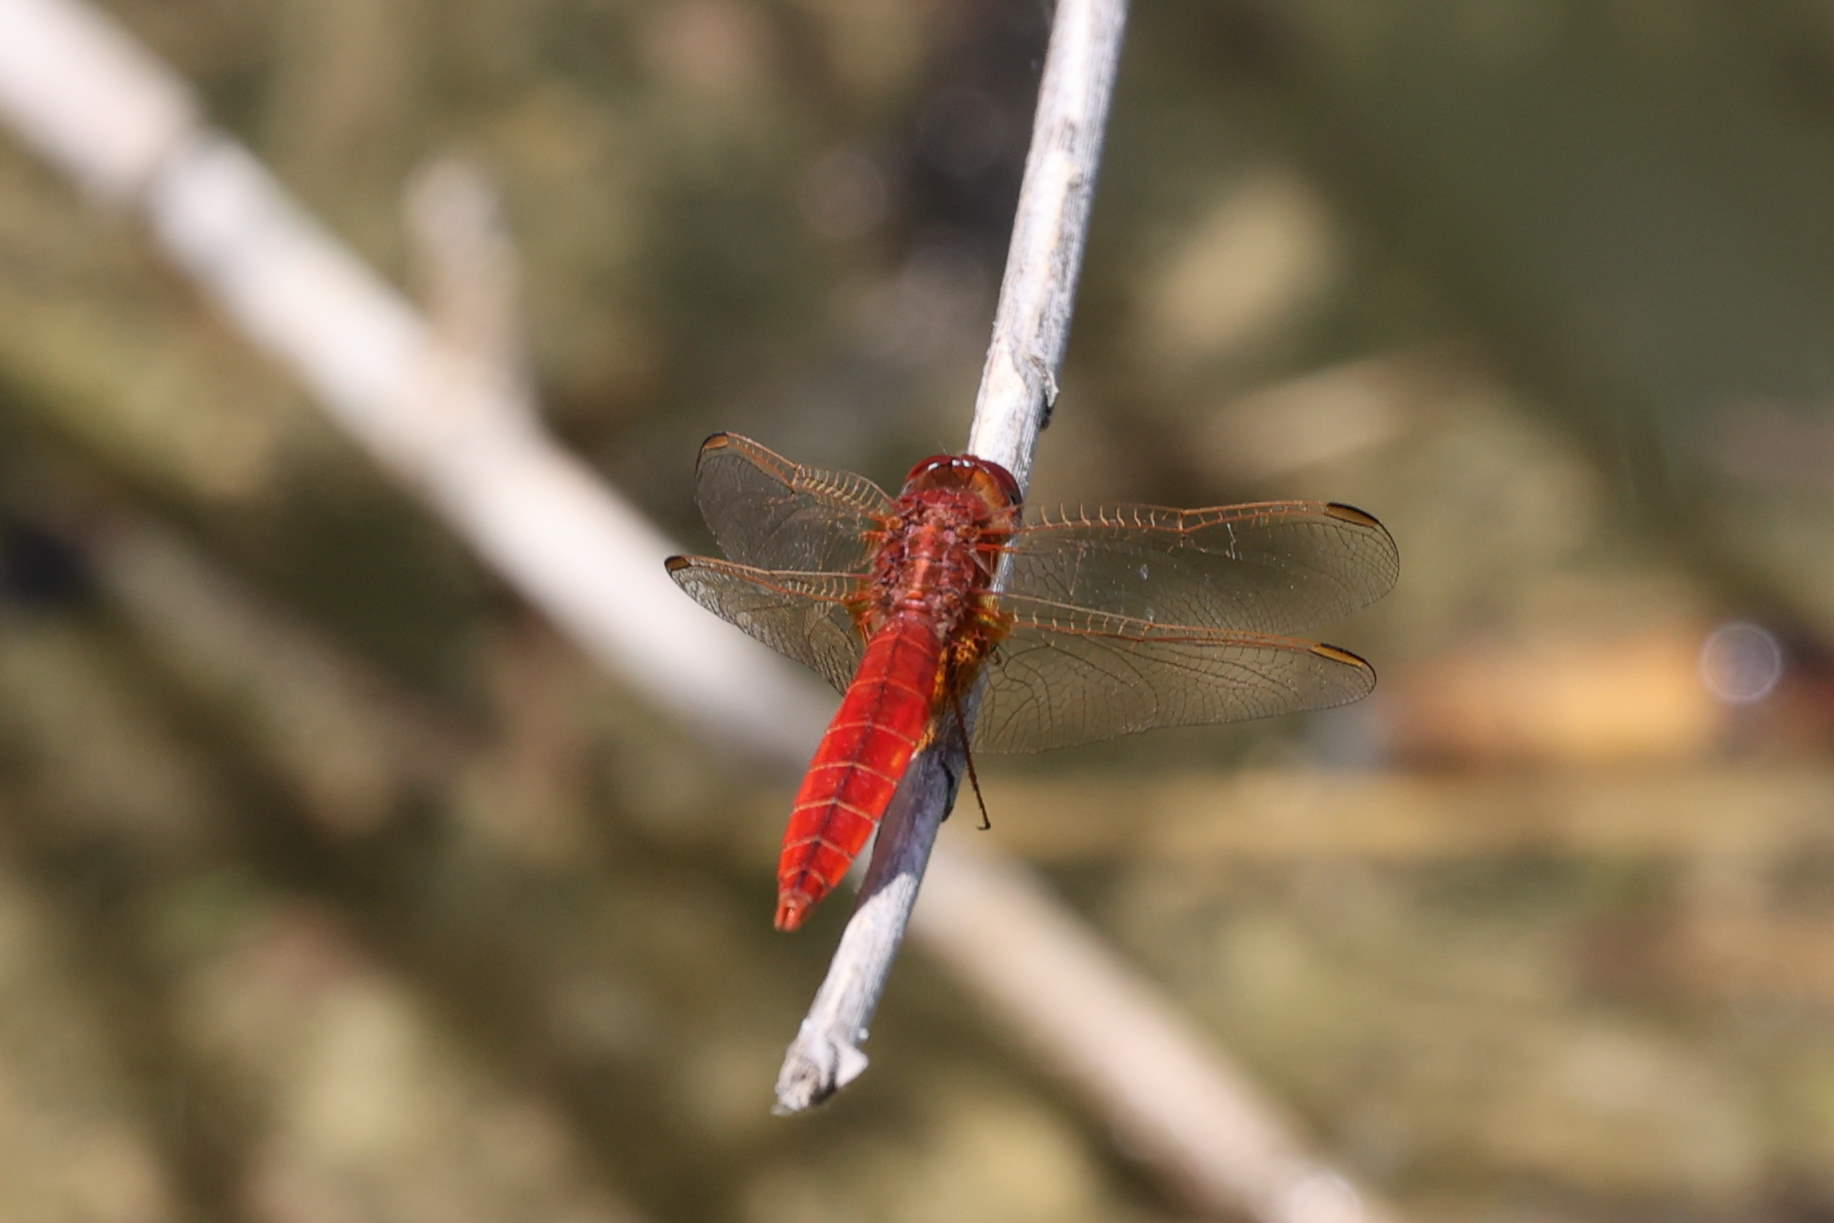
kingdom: Animalia
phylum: Arthropoda
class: Insecta
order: Odonata
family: Libellulidae
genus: Crocothemis
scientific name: Crocothemis erythraea
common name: Scarlet dragonfly
